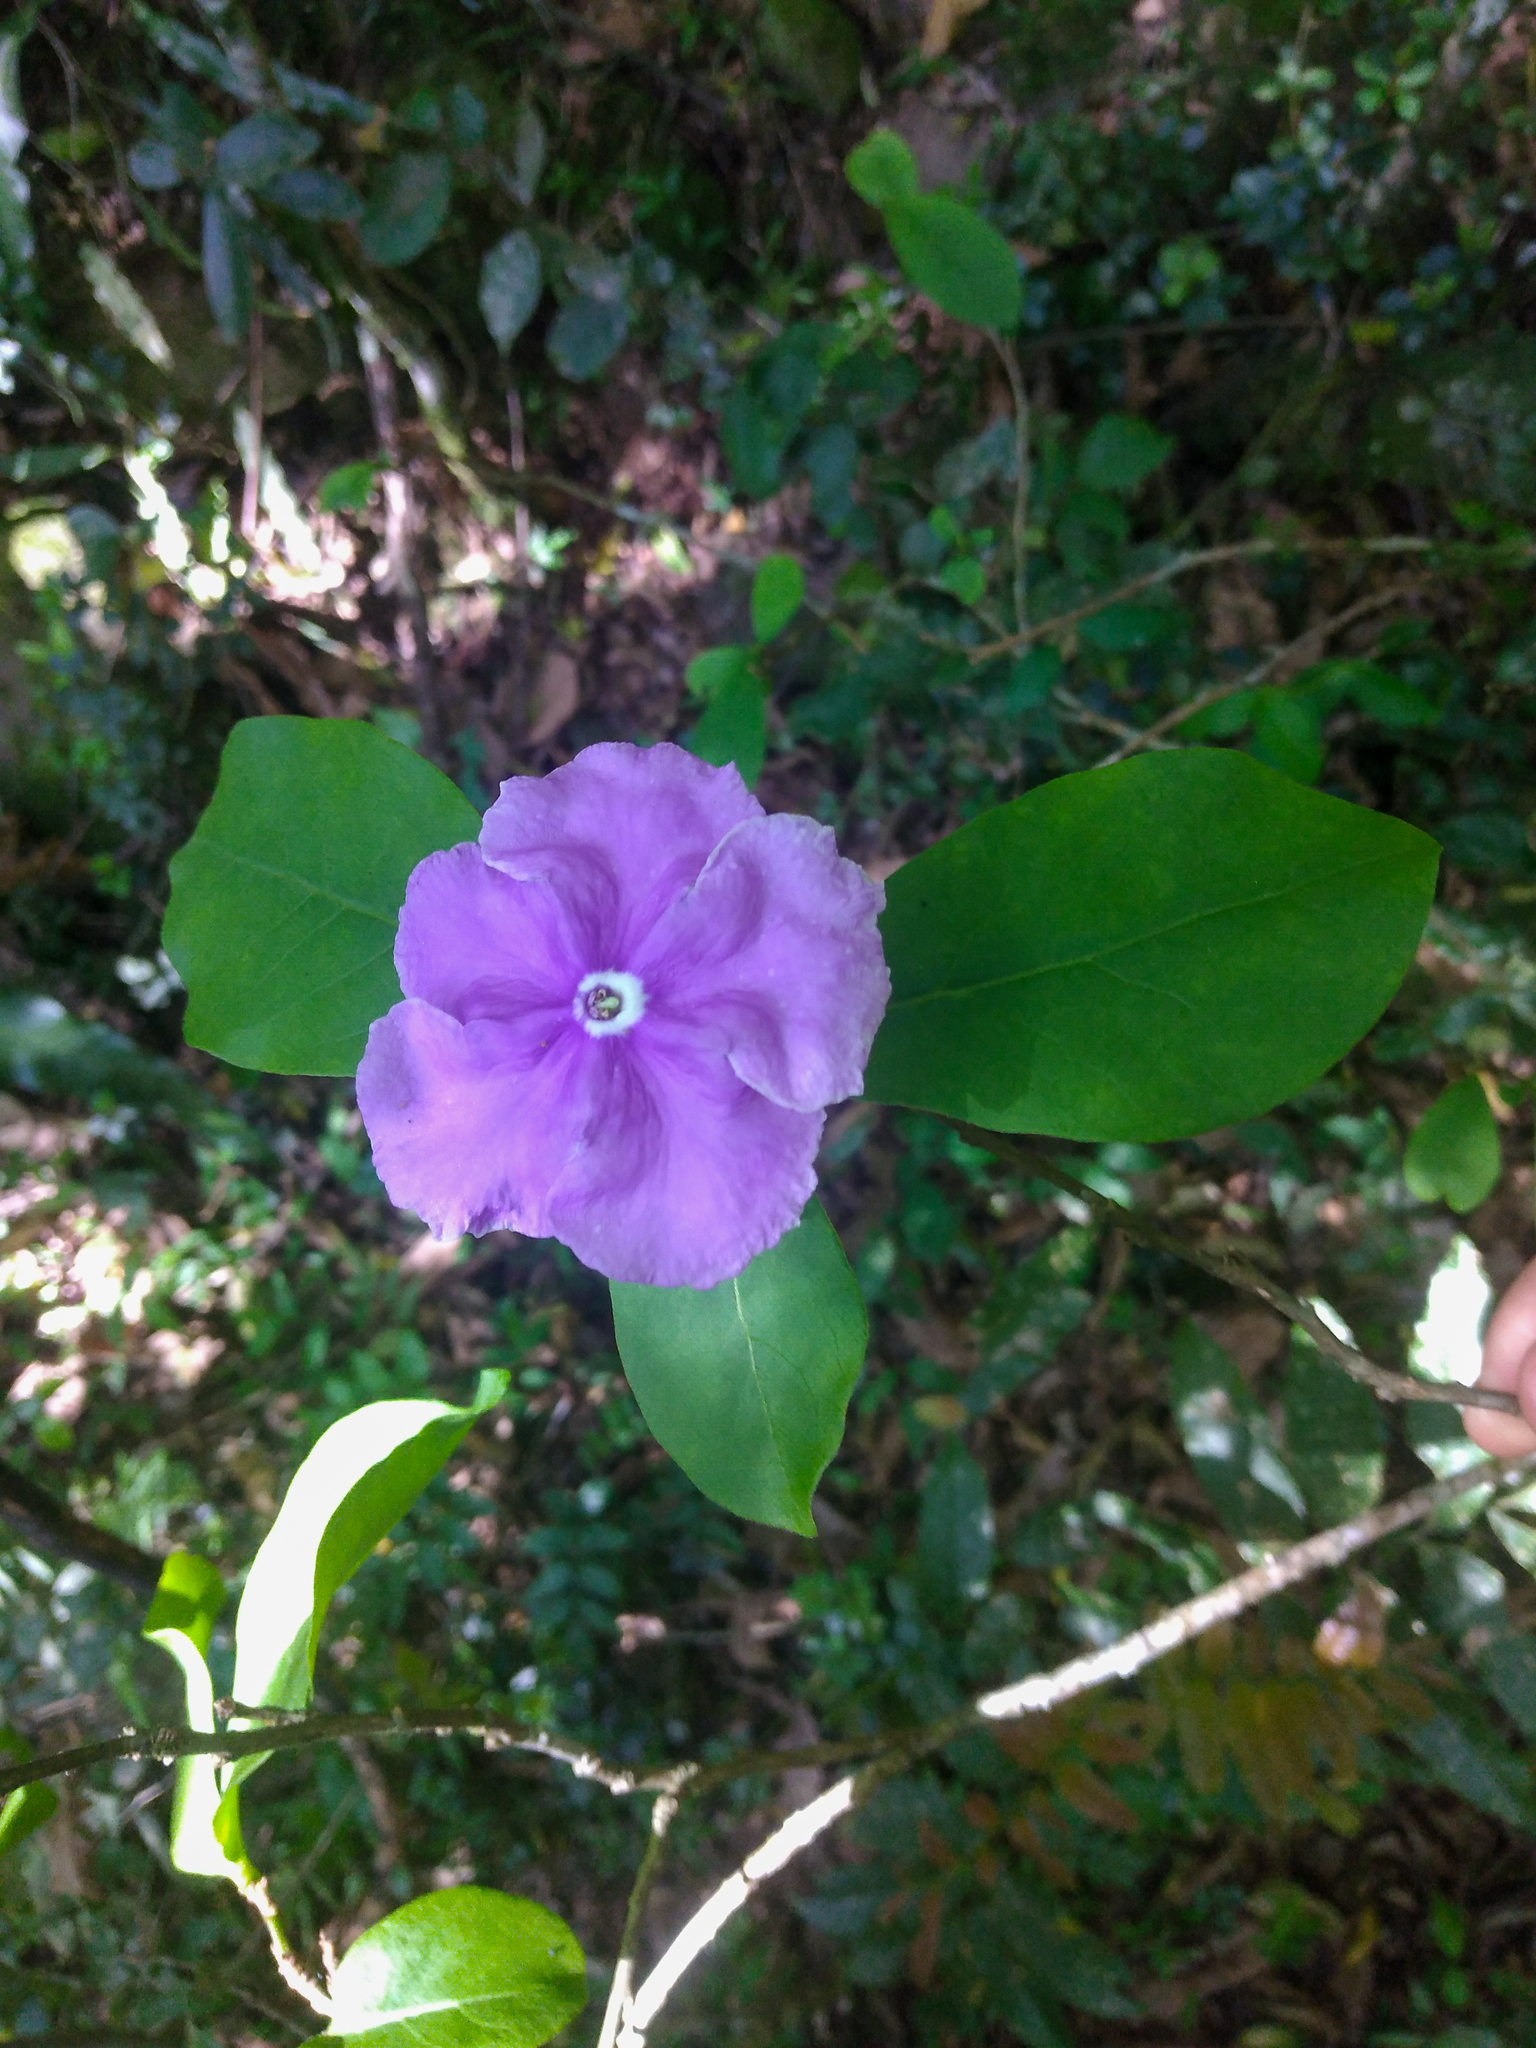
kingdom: Plantae
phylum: Tracheophyta
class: Magnoliopsida
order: Solanales
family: Solanaceae
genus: Brunfelsia
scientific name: Brunfelsia australis
